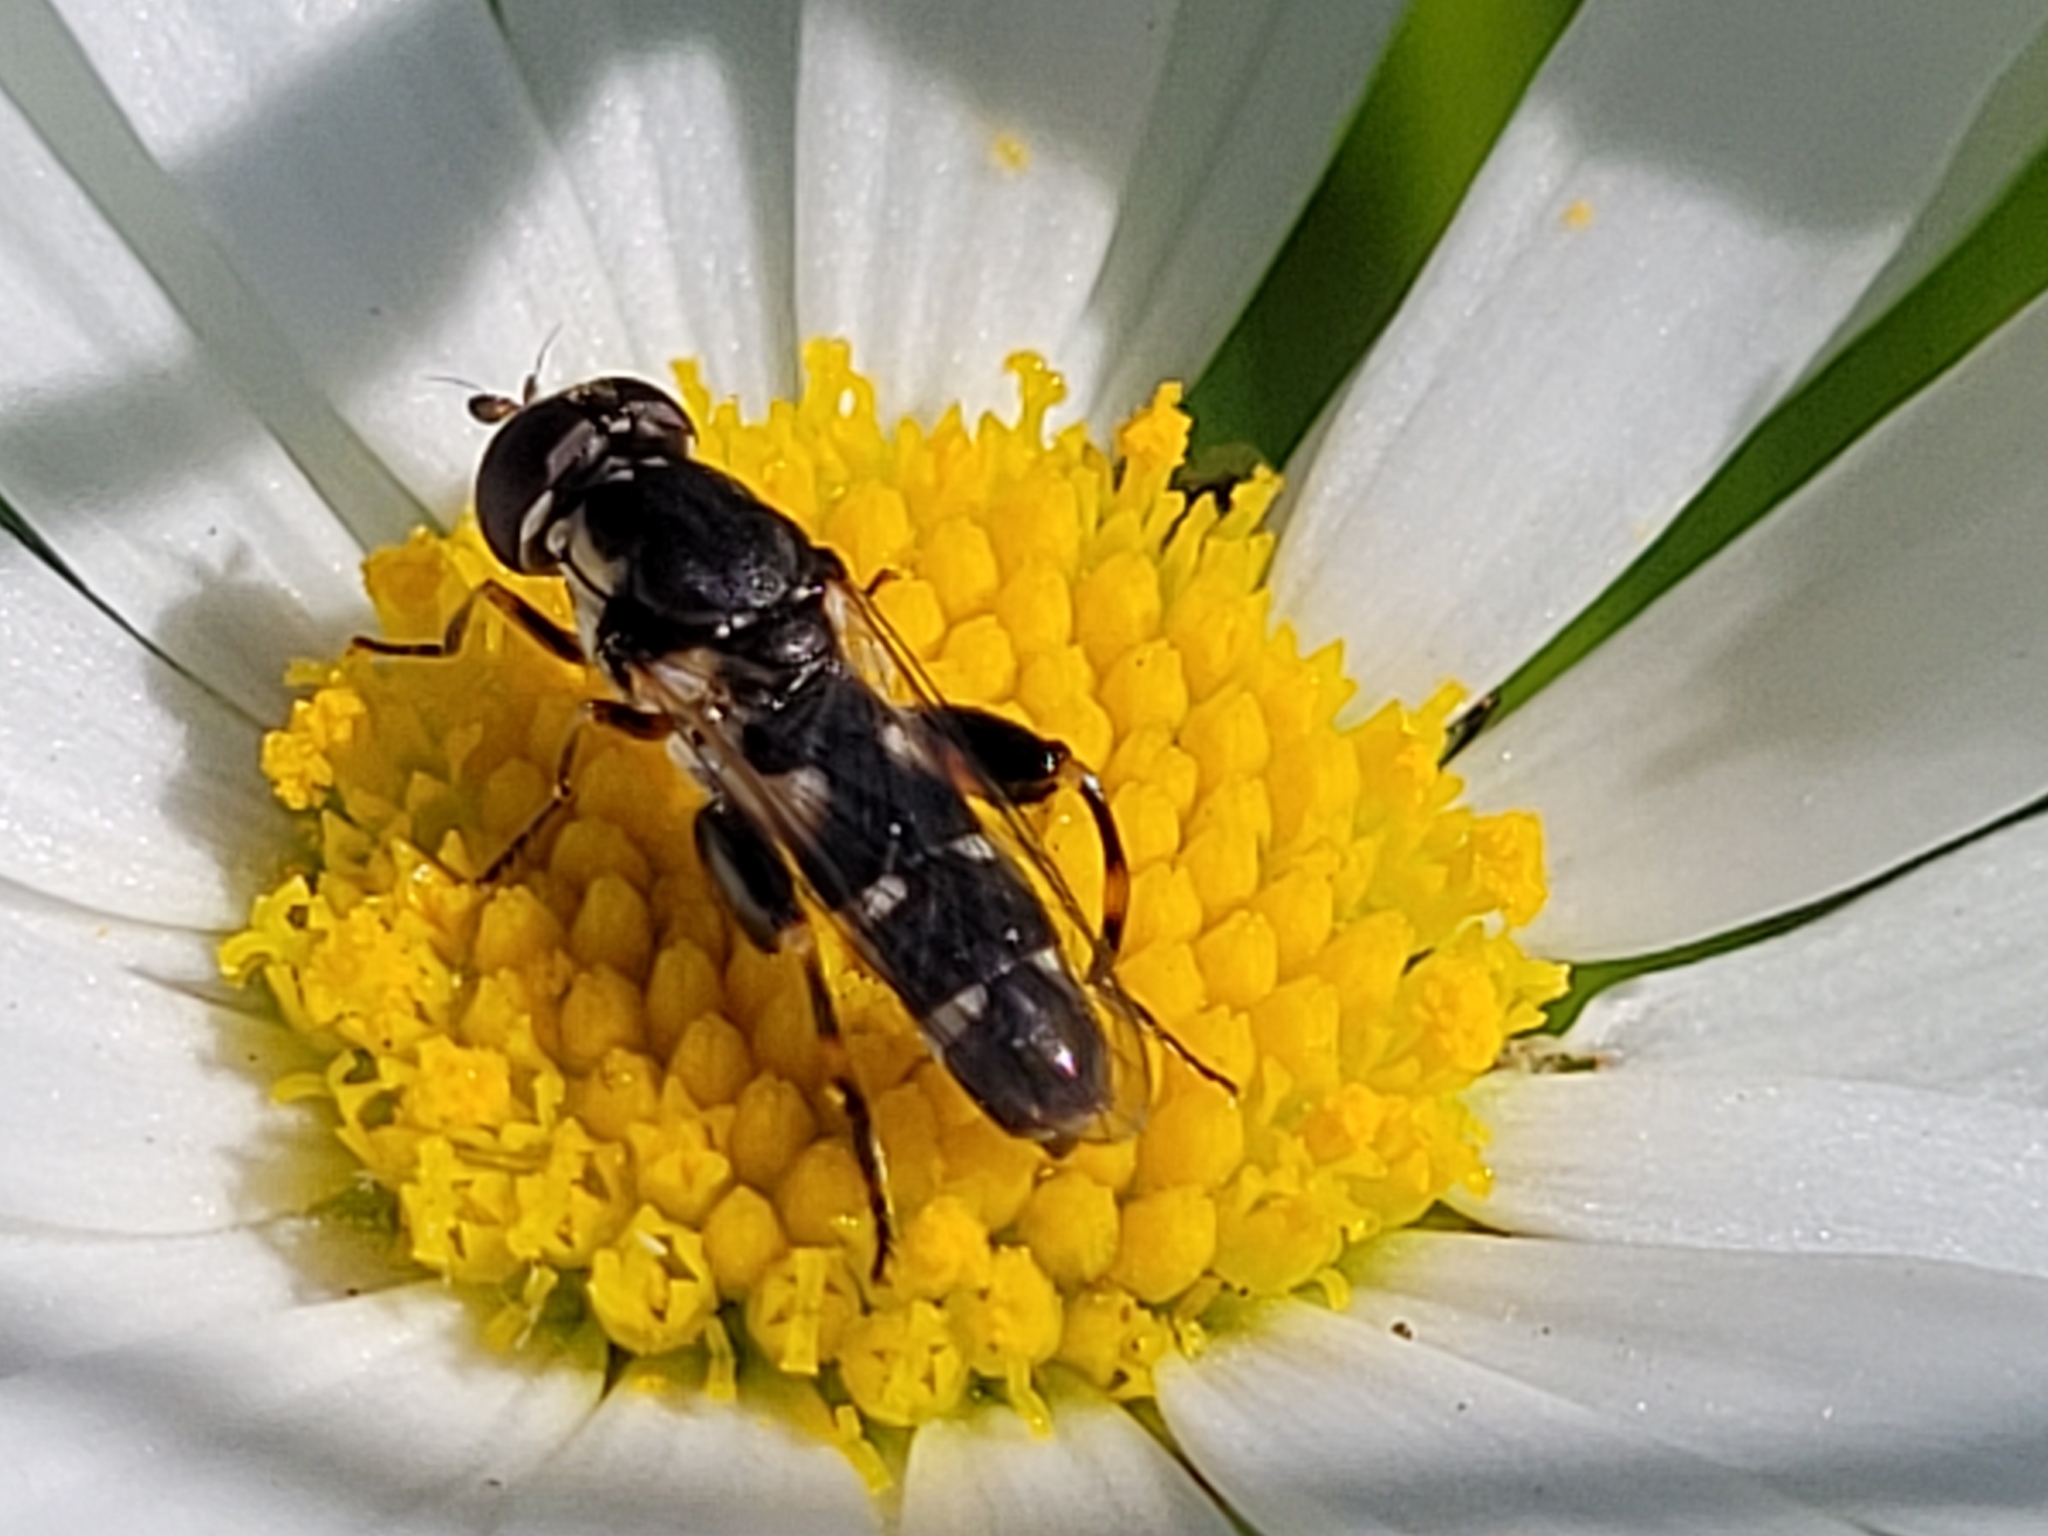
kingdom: Animalia
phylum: Arthropoda
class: Insecta
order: Diptera
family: Syrphidae
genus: Syritta
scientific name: Syritta pipiens
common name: Hover fly
